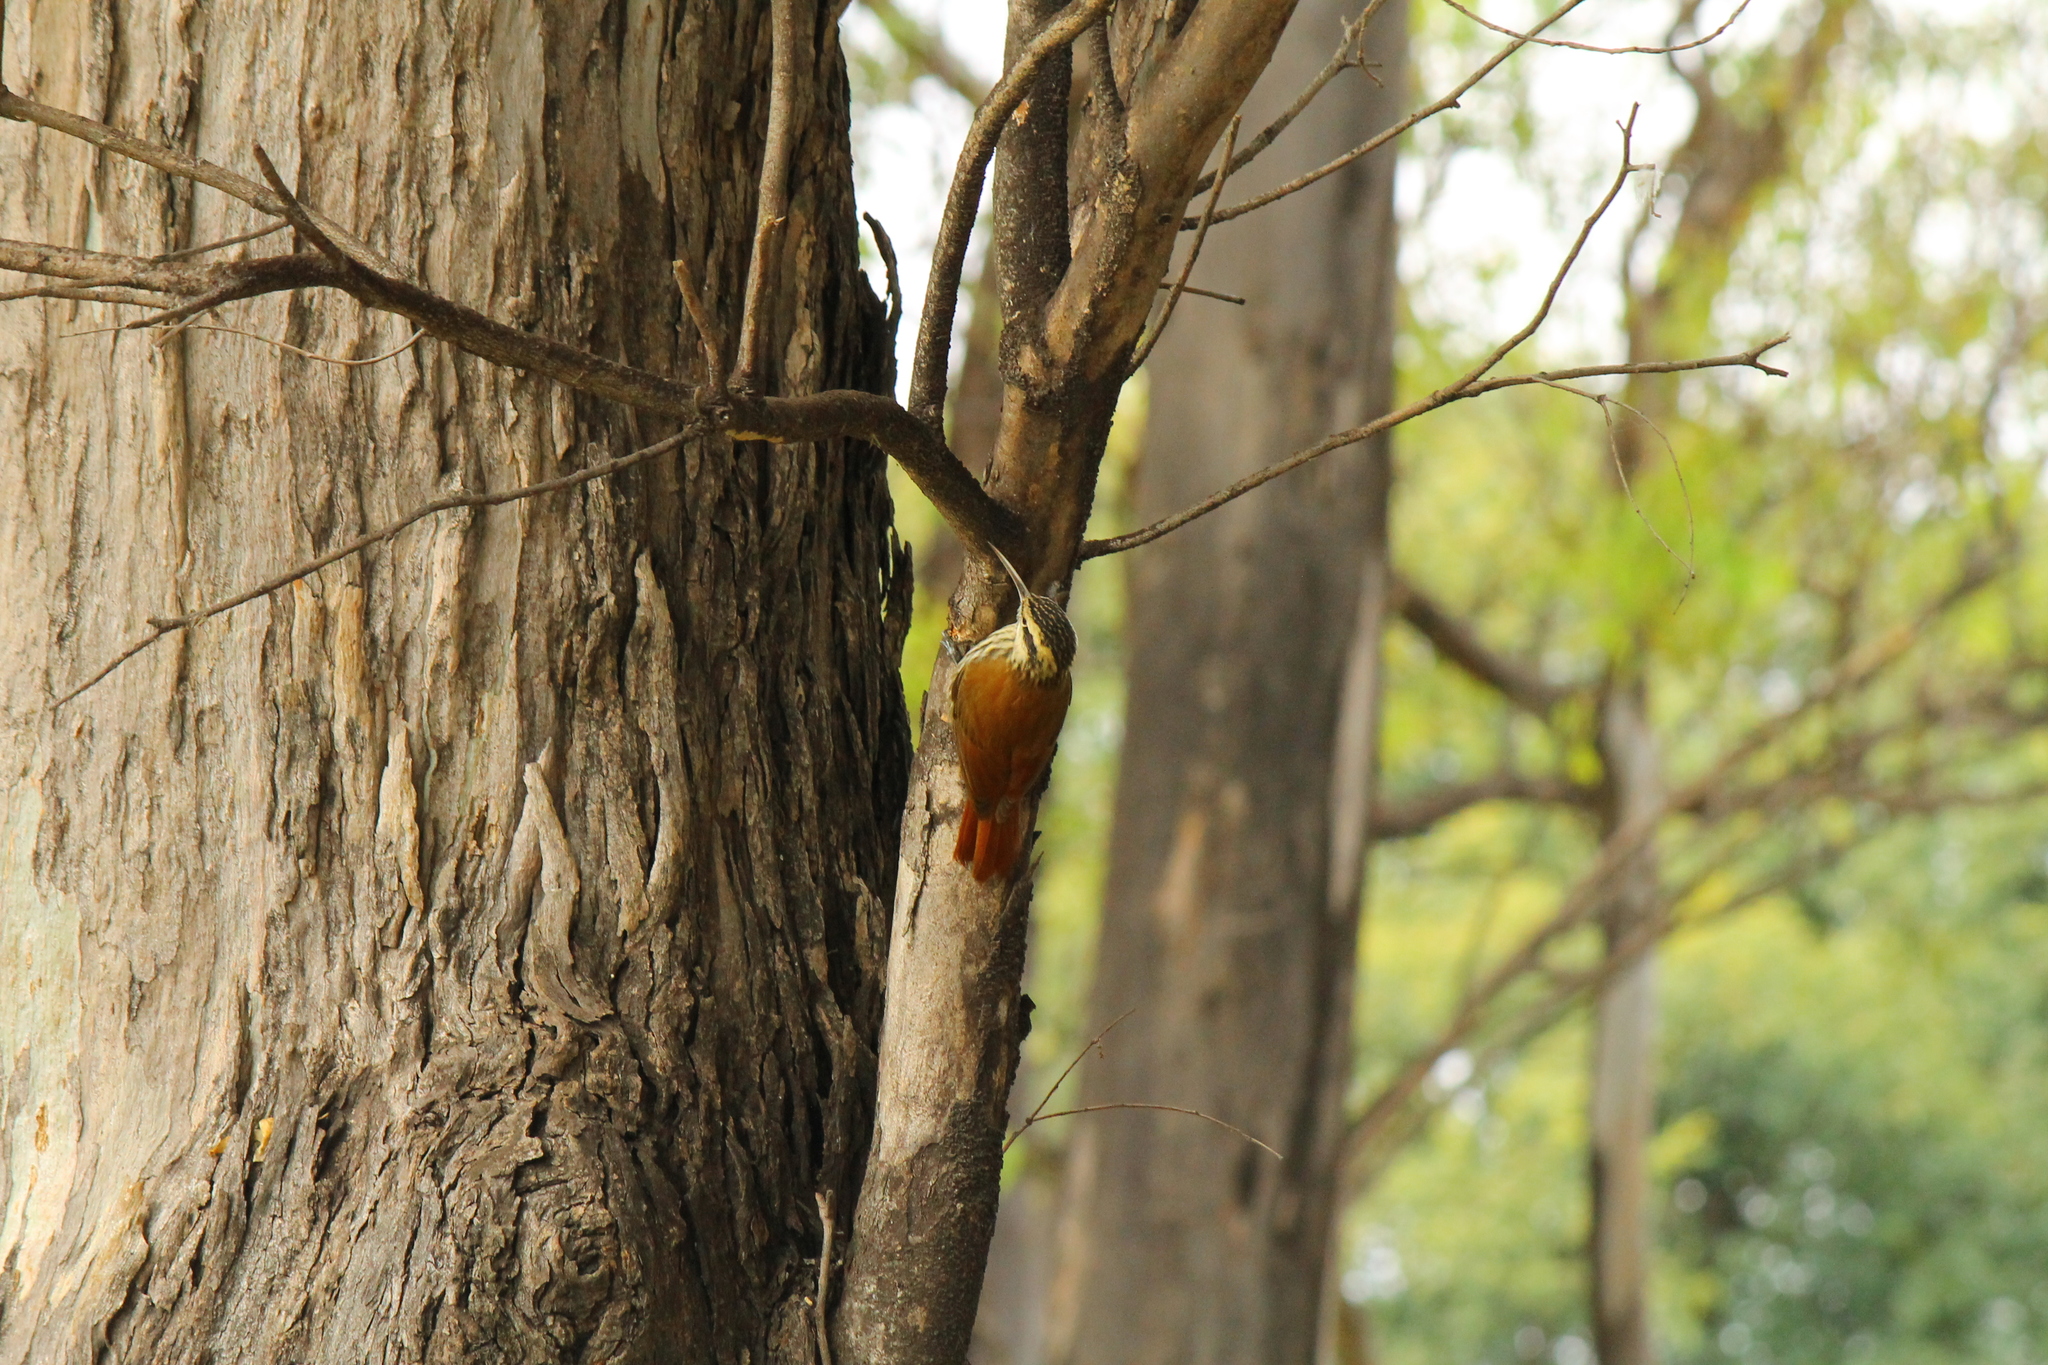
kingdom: Animalia
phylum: Chordata
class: Aves
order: Passeriformes
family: Furnariidae
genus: Lepidocolaptes
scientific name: Lepidocolaptes angustirostris
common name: Narrow-billed woodcreeper
